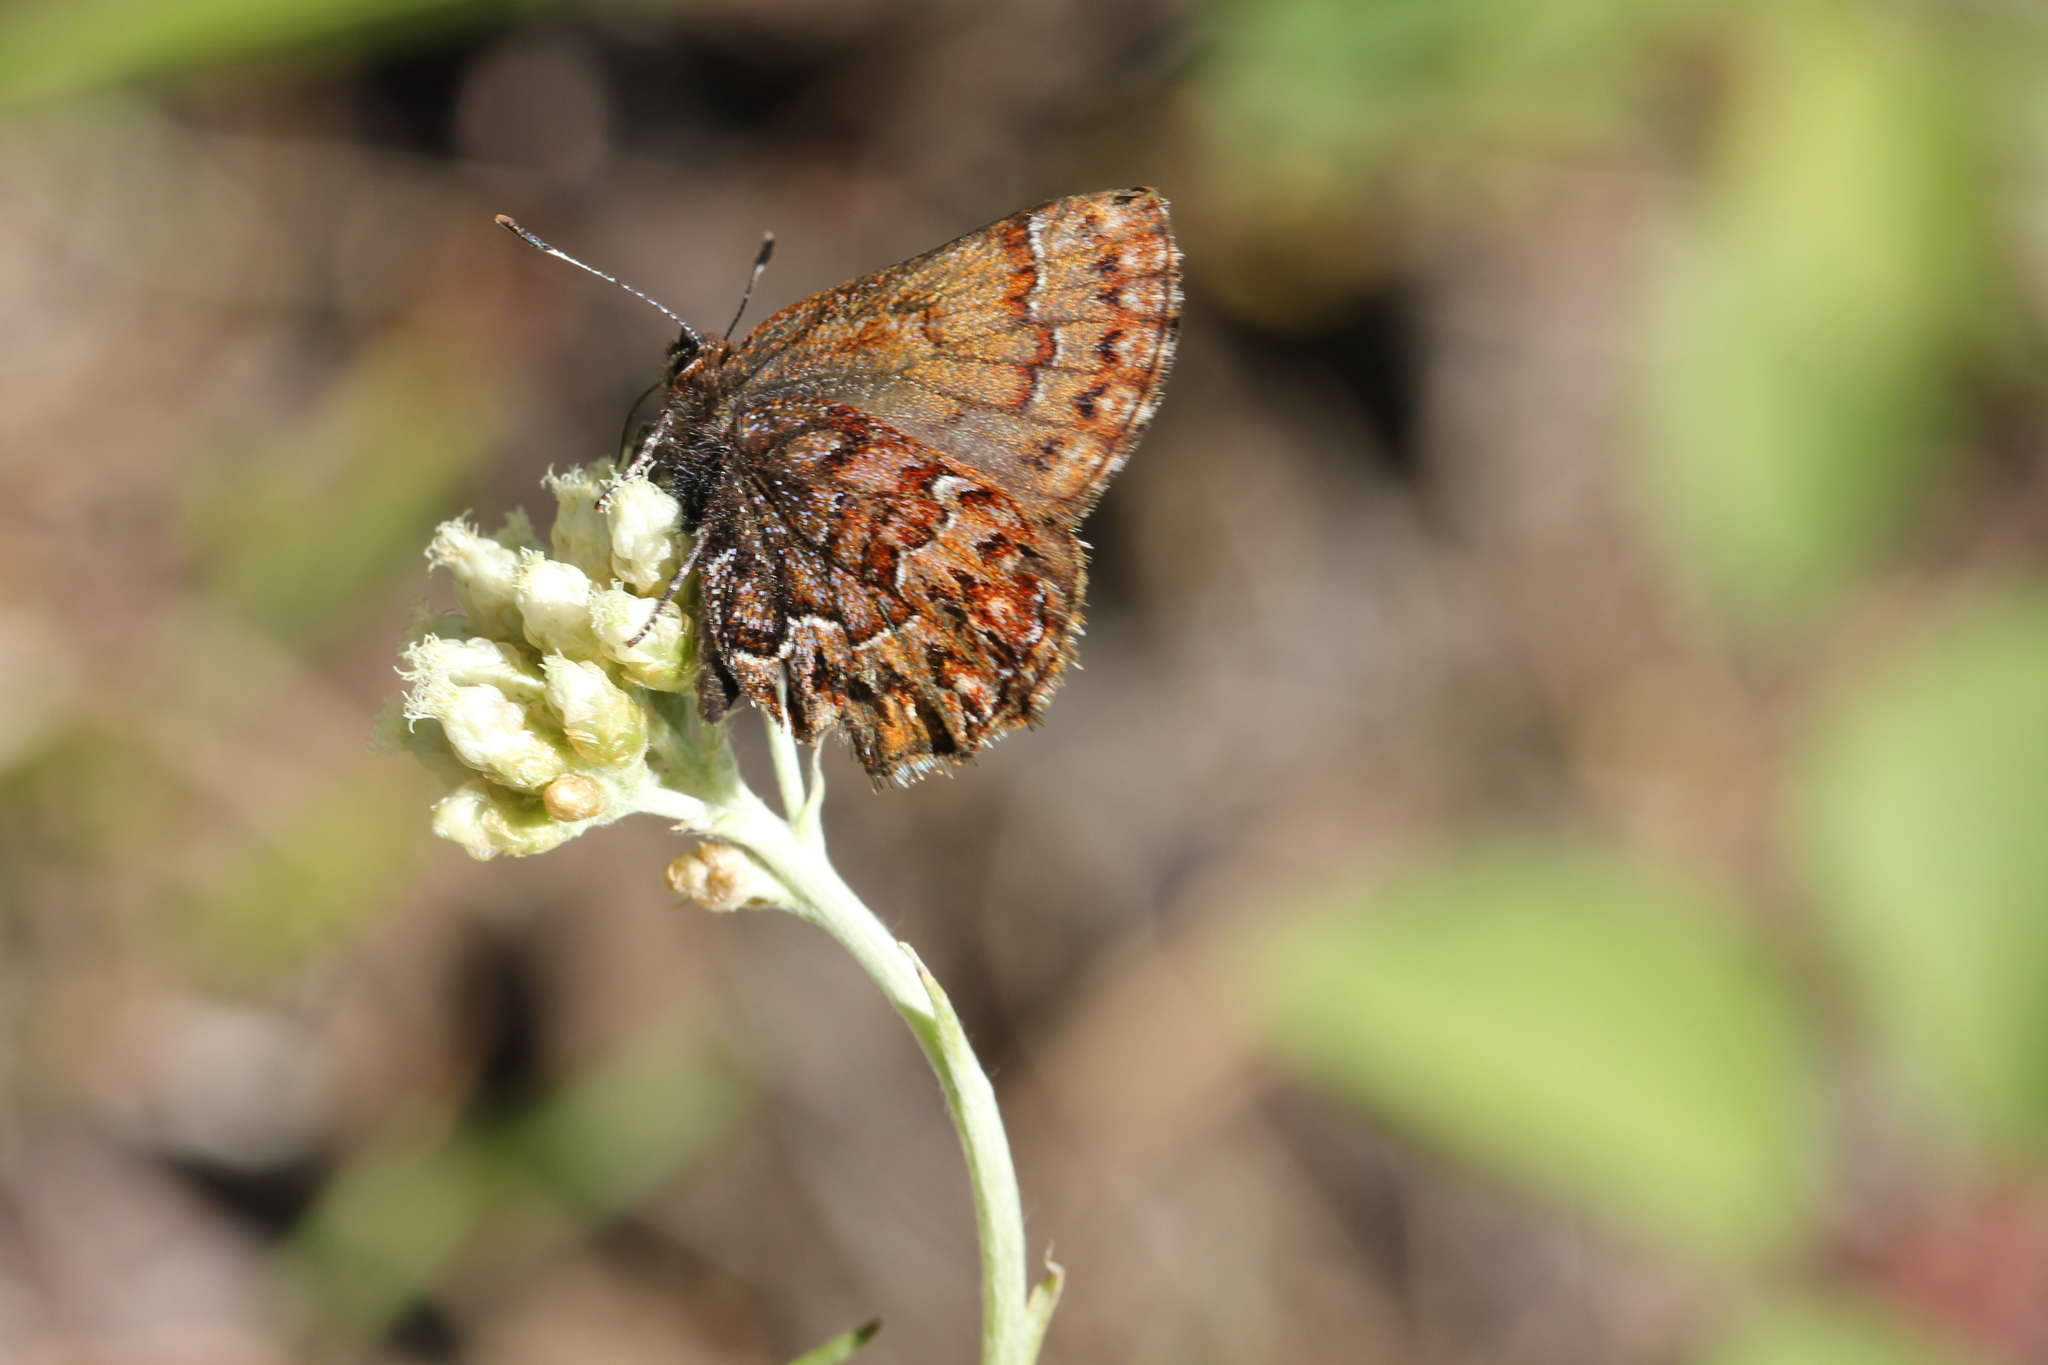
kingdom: Animalia
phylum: Arthropoda
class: Insecta
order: Lepidoptera
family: Lycaenidae
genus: Incisalia
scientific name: Incisalia eryphon
